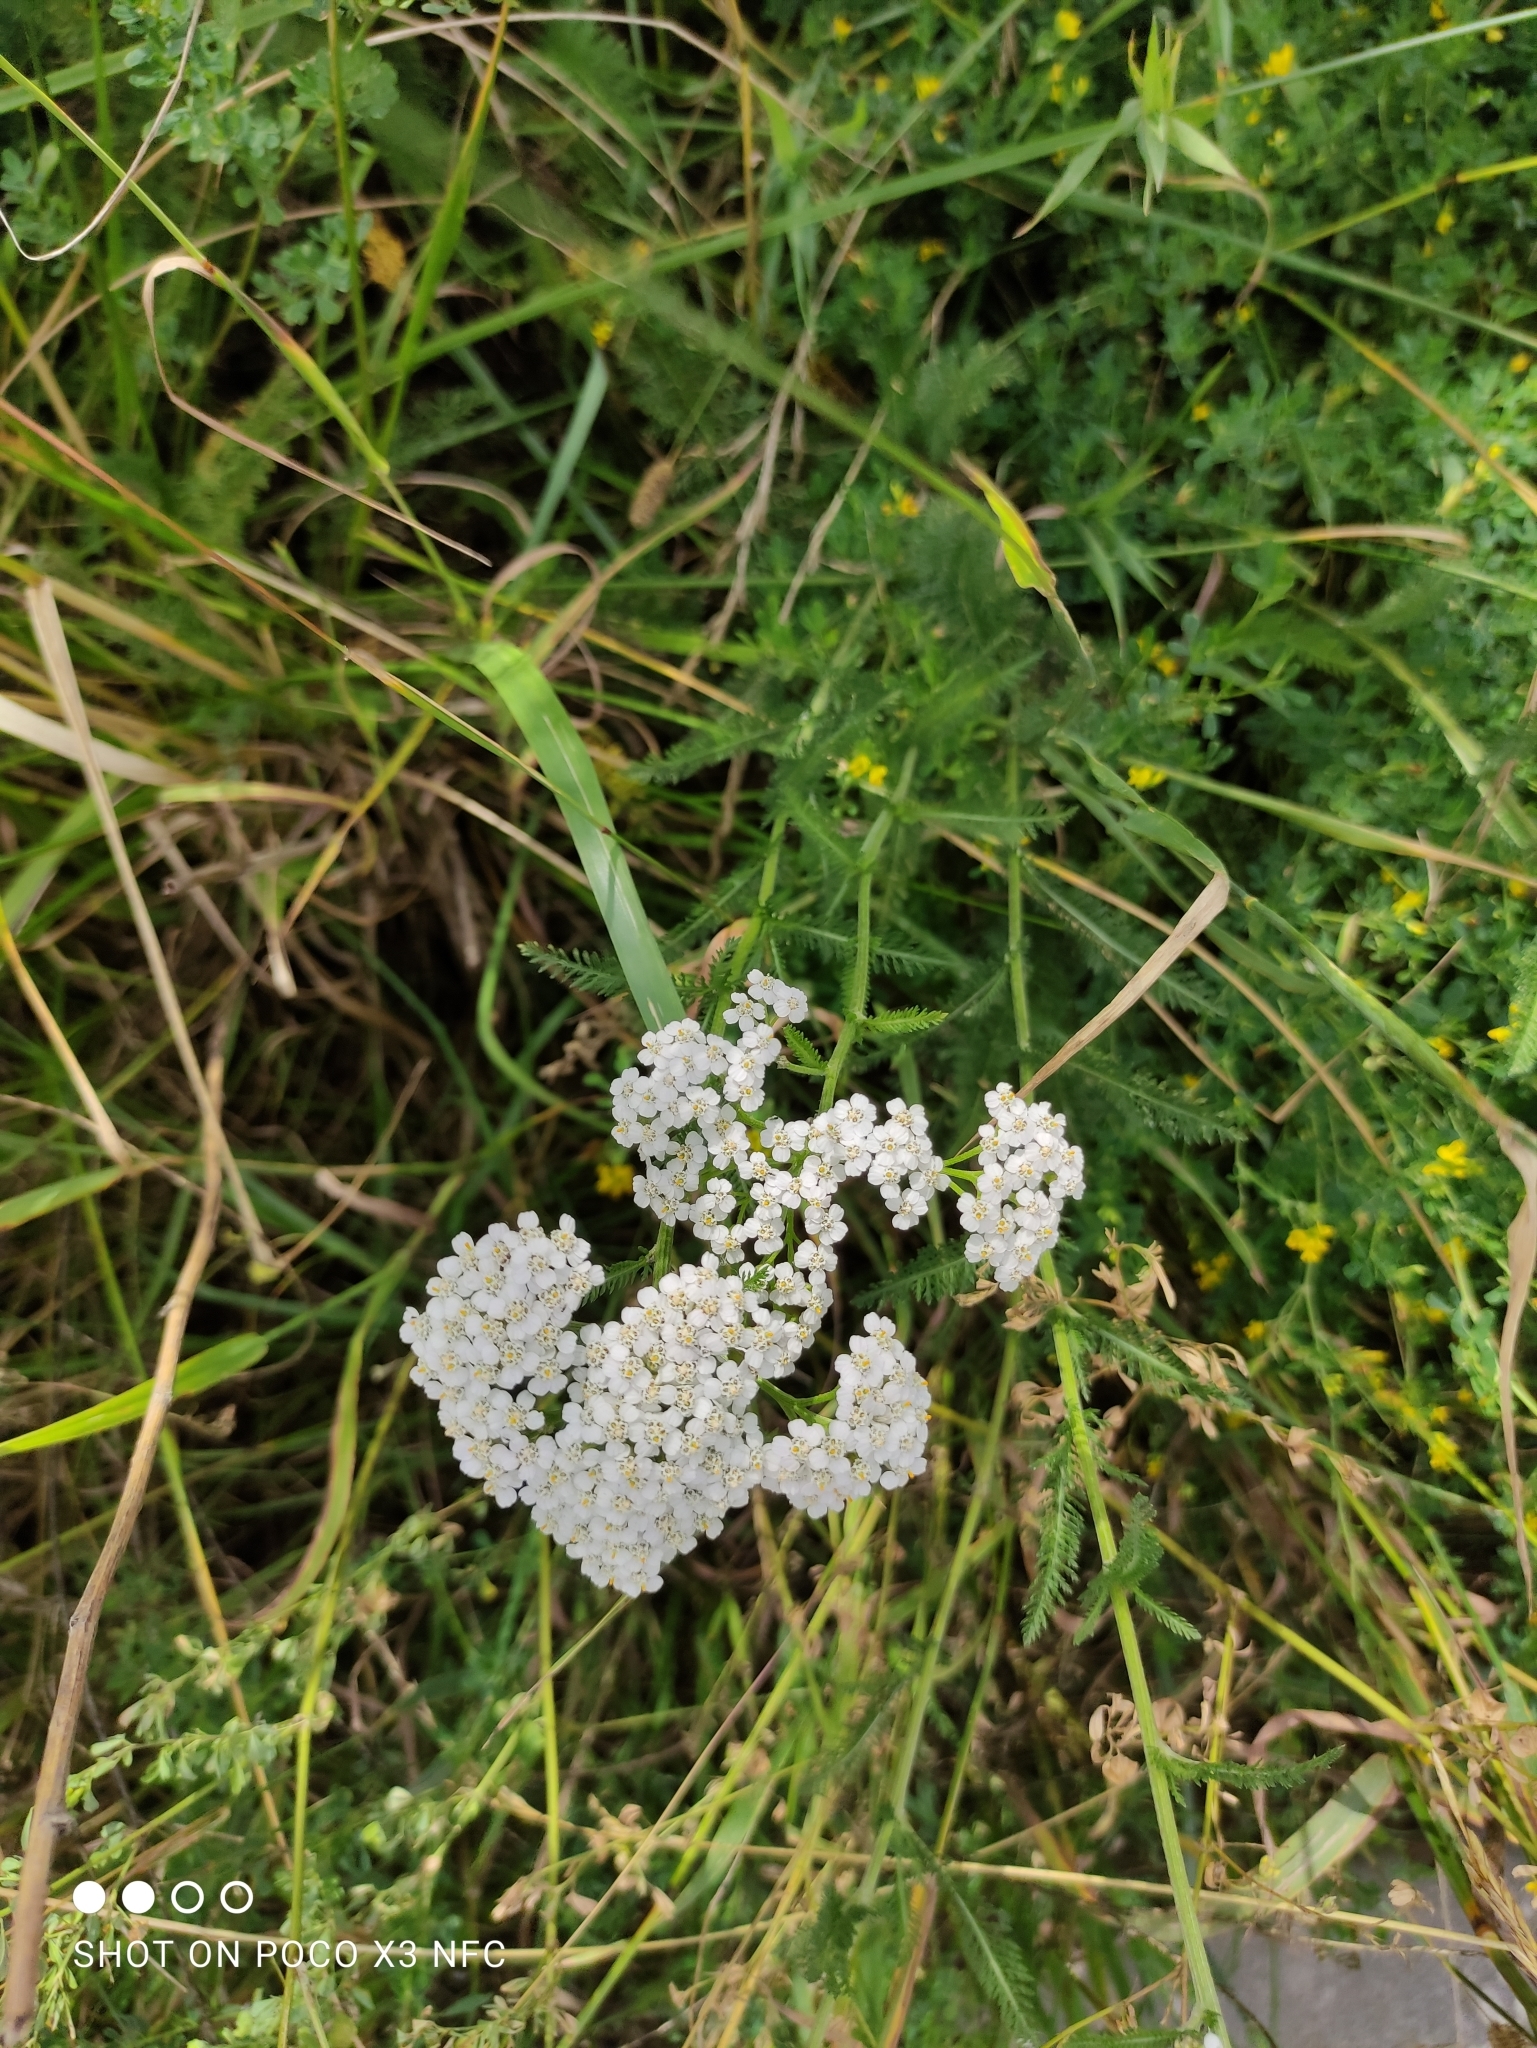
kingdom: Plantae
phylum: Tracheophyta
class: Magnoliopsida
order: Asterales
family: Asteraceae
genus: Achillea
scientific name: Achillea millefolium
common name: Yarrow
